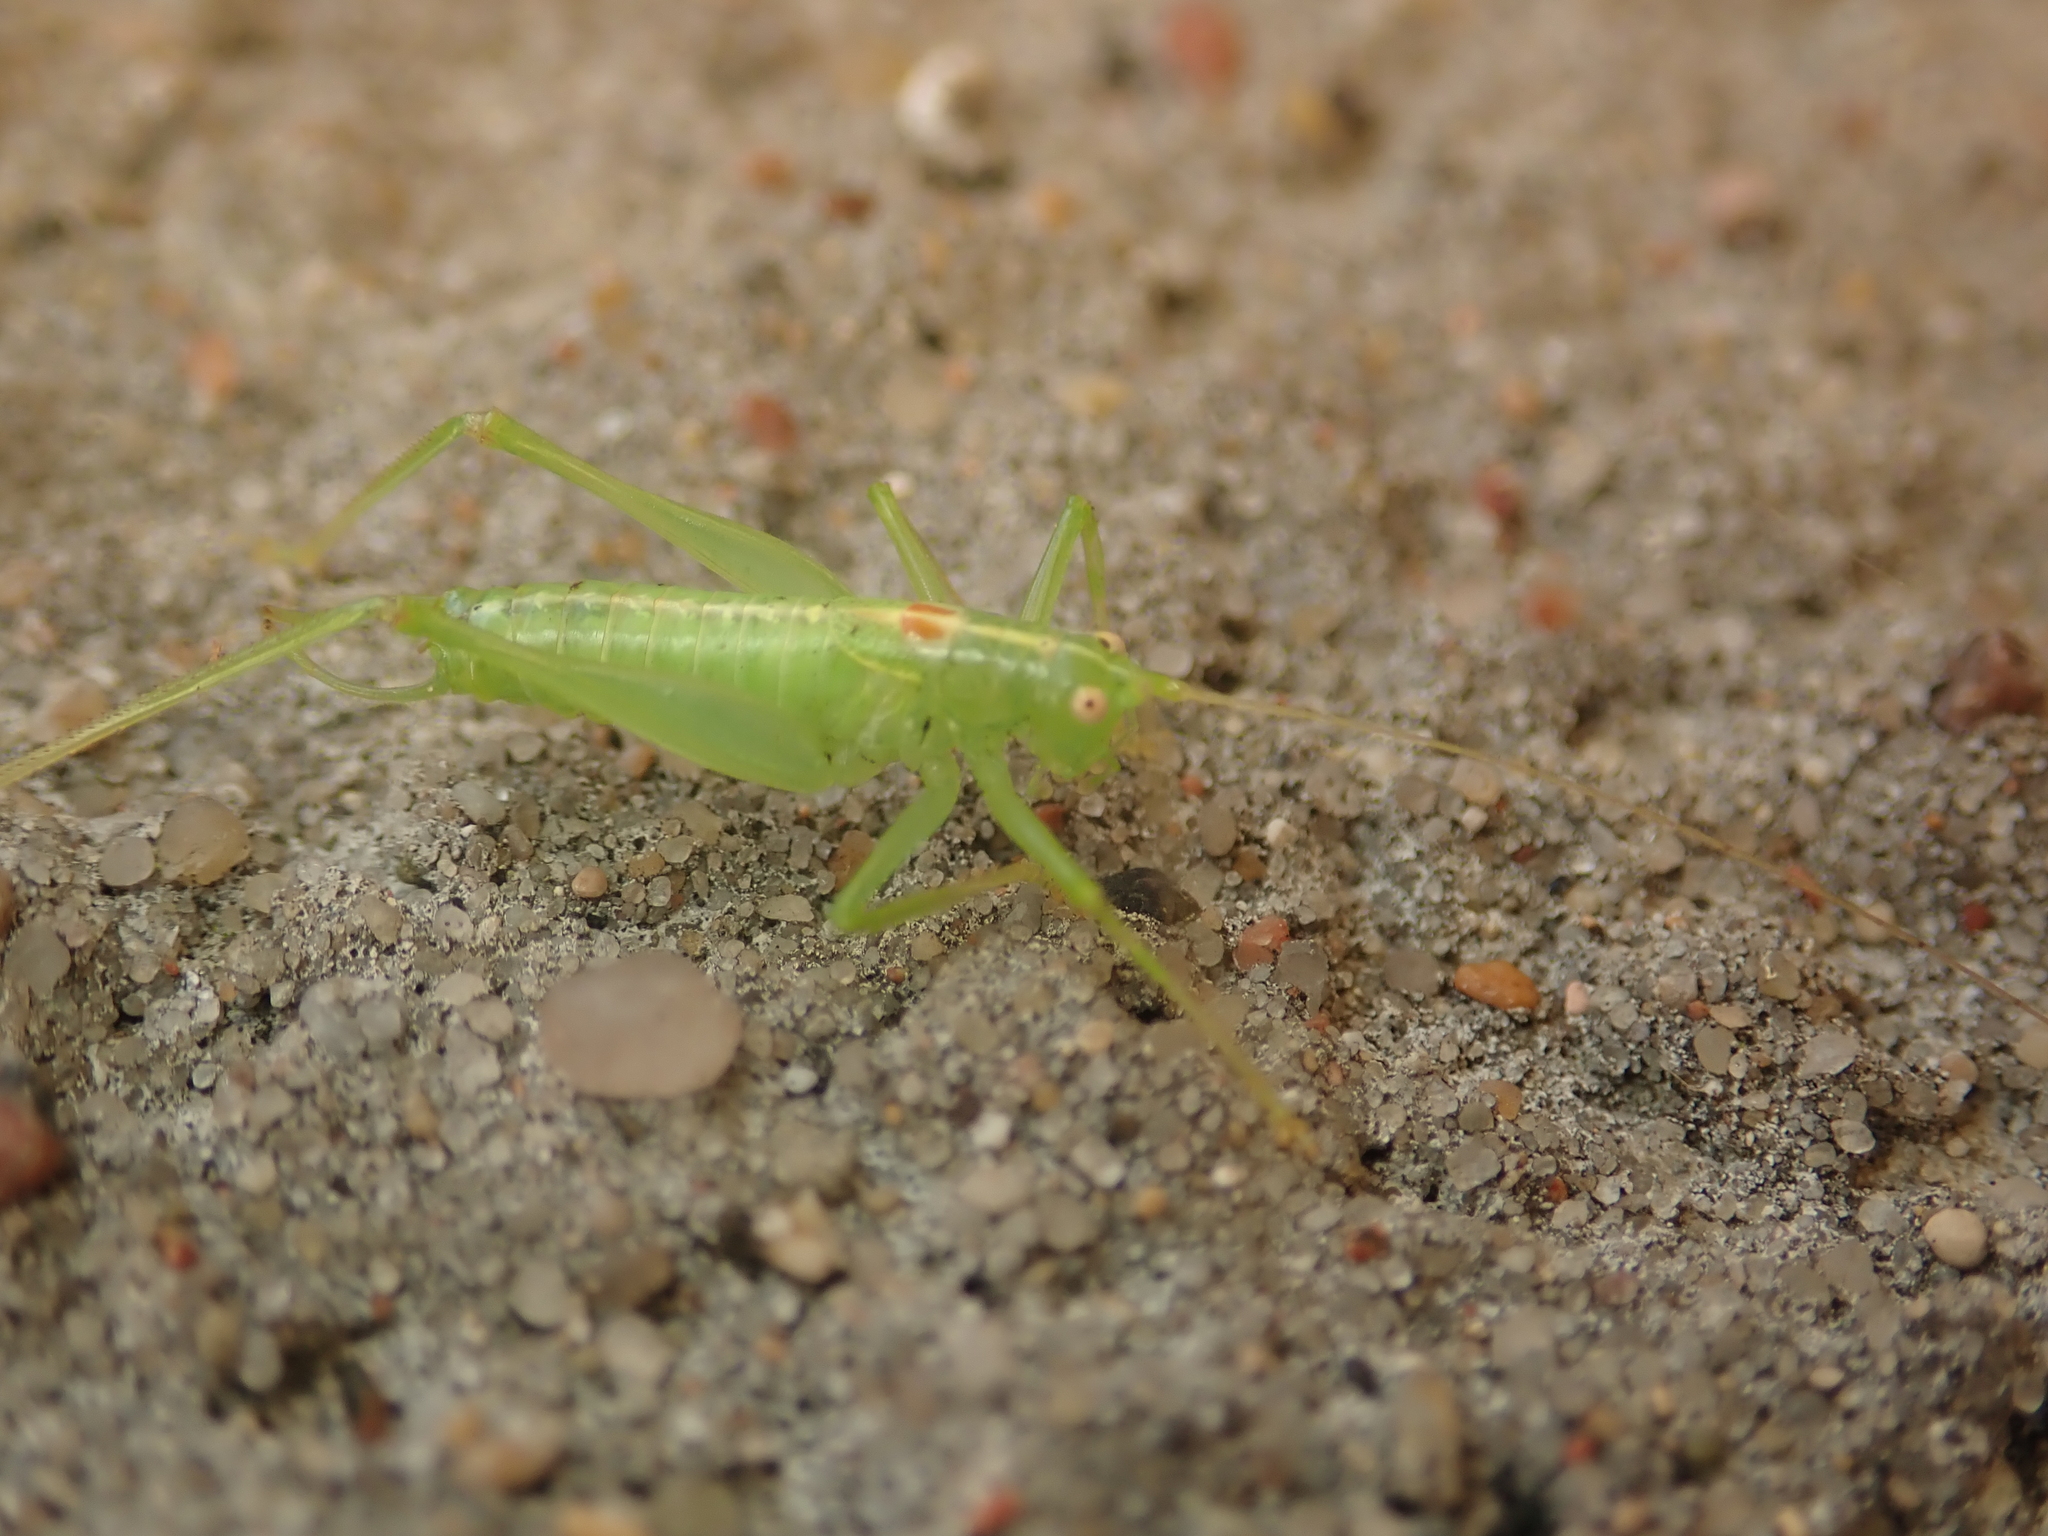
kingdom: Animalia
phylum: Arthropoda
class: Insecta
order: Orthoptera
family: Tettigoniidae
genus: Meconema
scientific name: Meconema meridionale
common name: Southern oak bush-cricket
